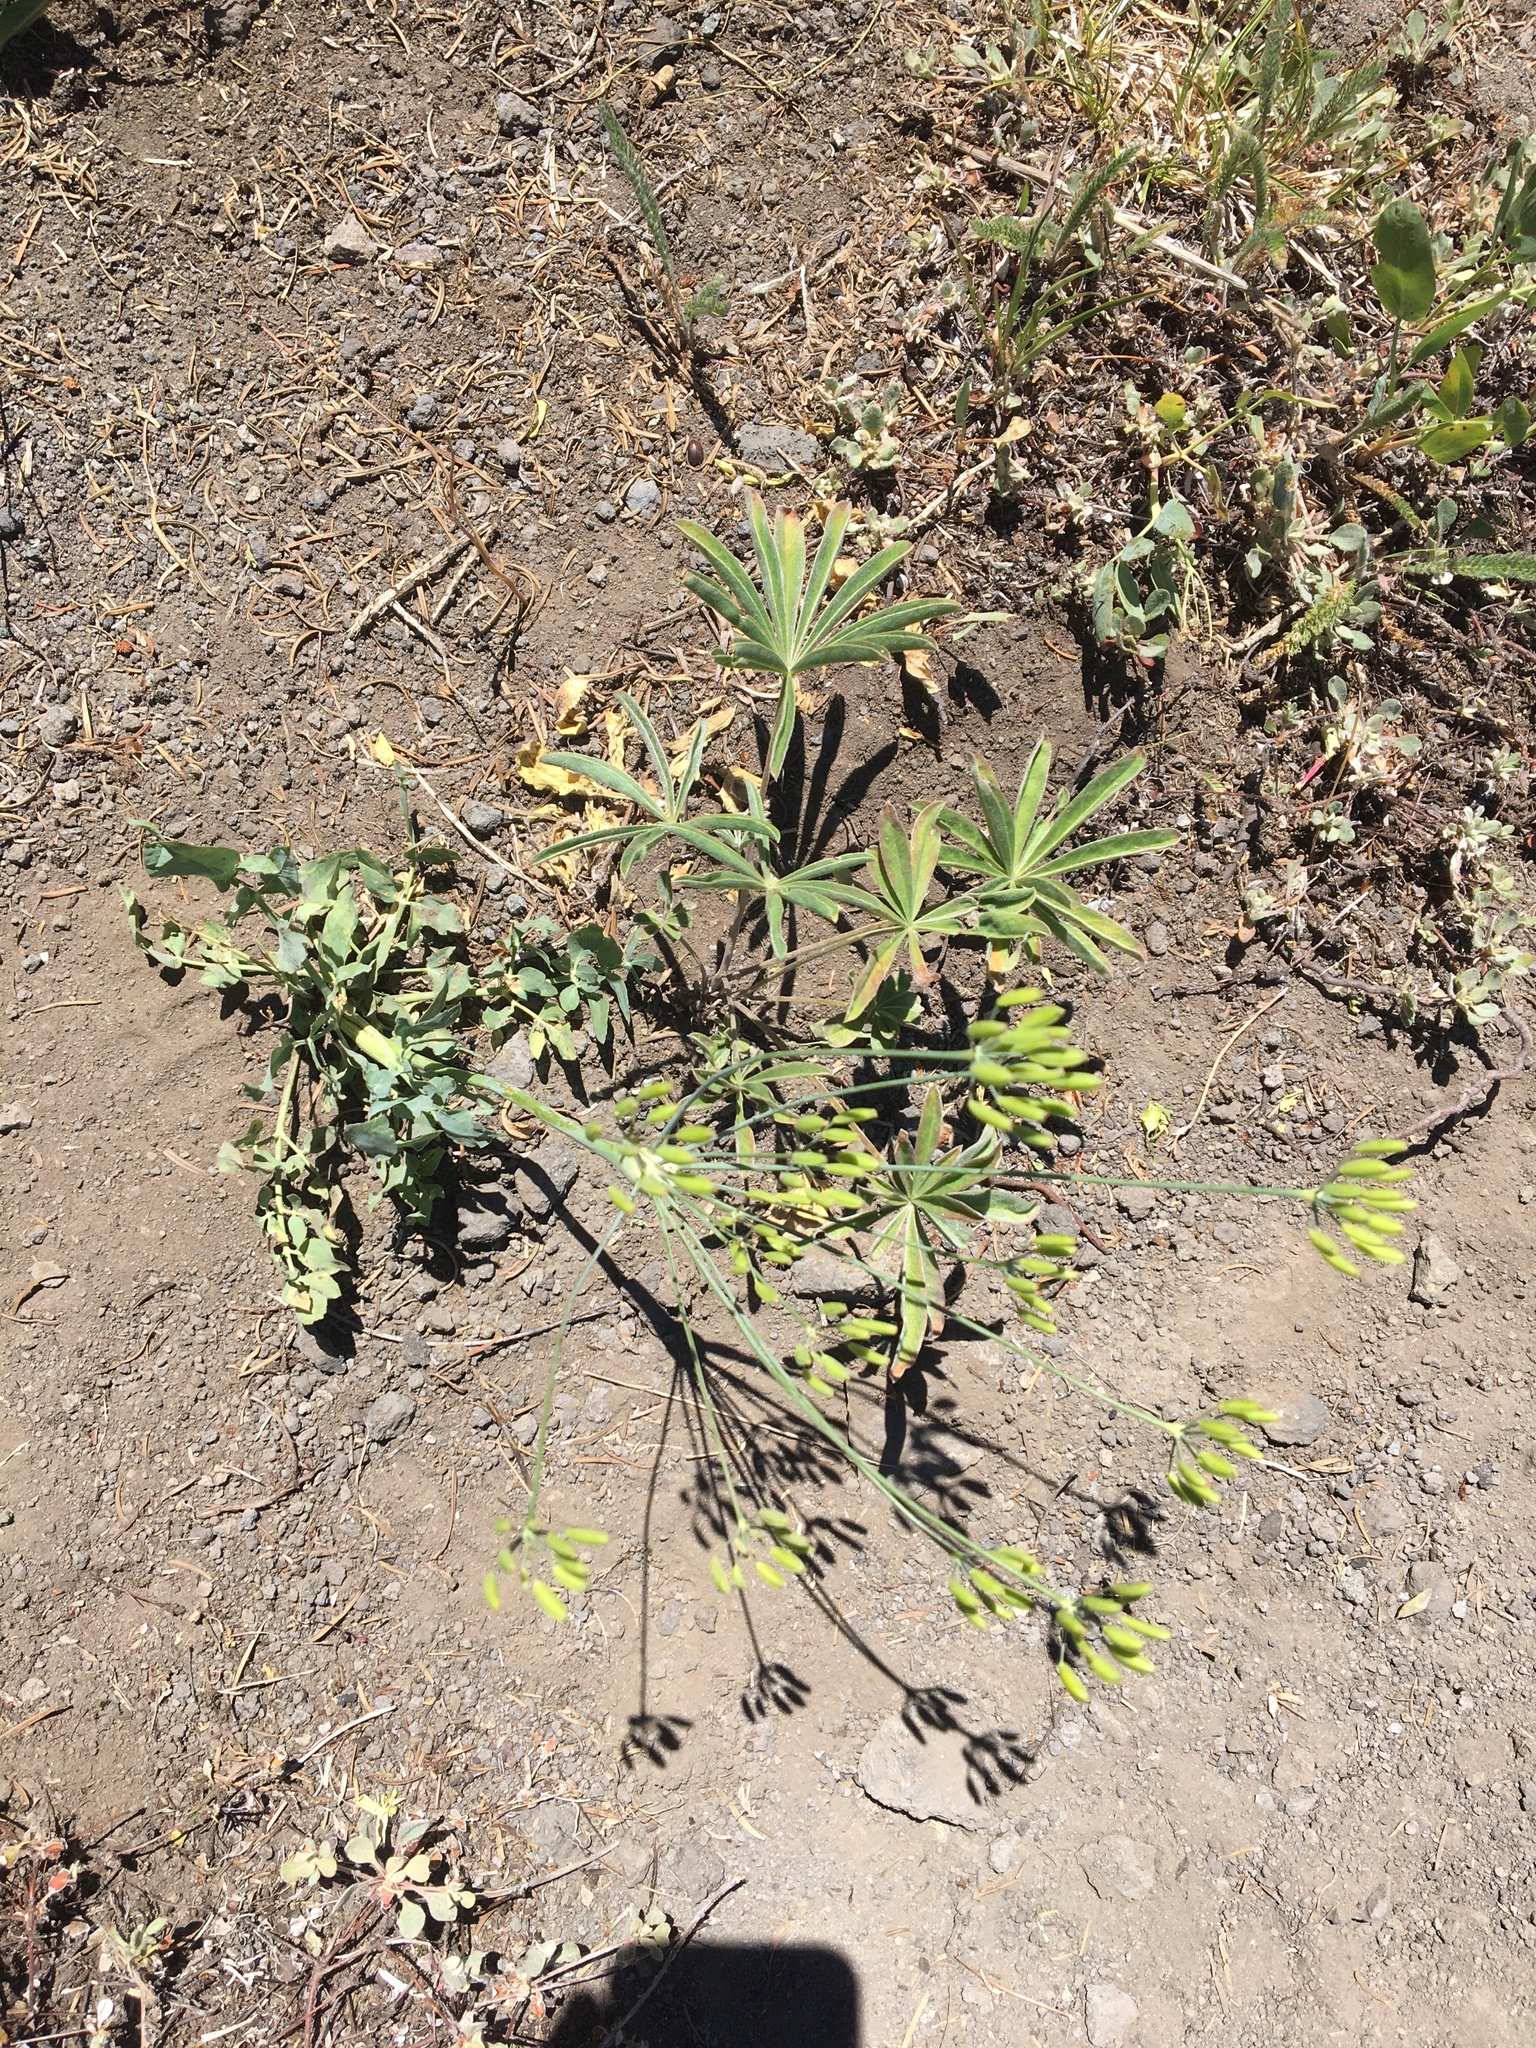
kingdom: Plantae
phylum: Tracheophyta
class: Magnoliopsida
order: Apiales
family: Apiaceae
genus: Lomatium
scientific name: Lomatium nudicaule
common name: Pestle lomatium
